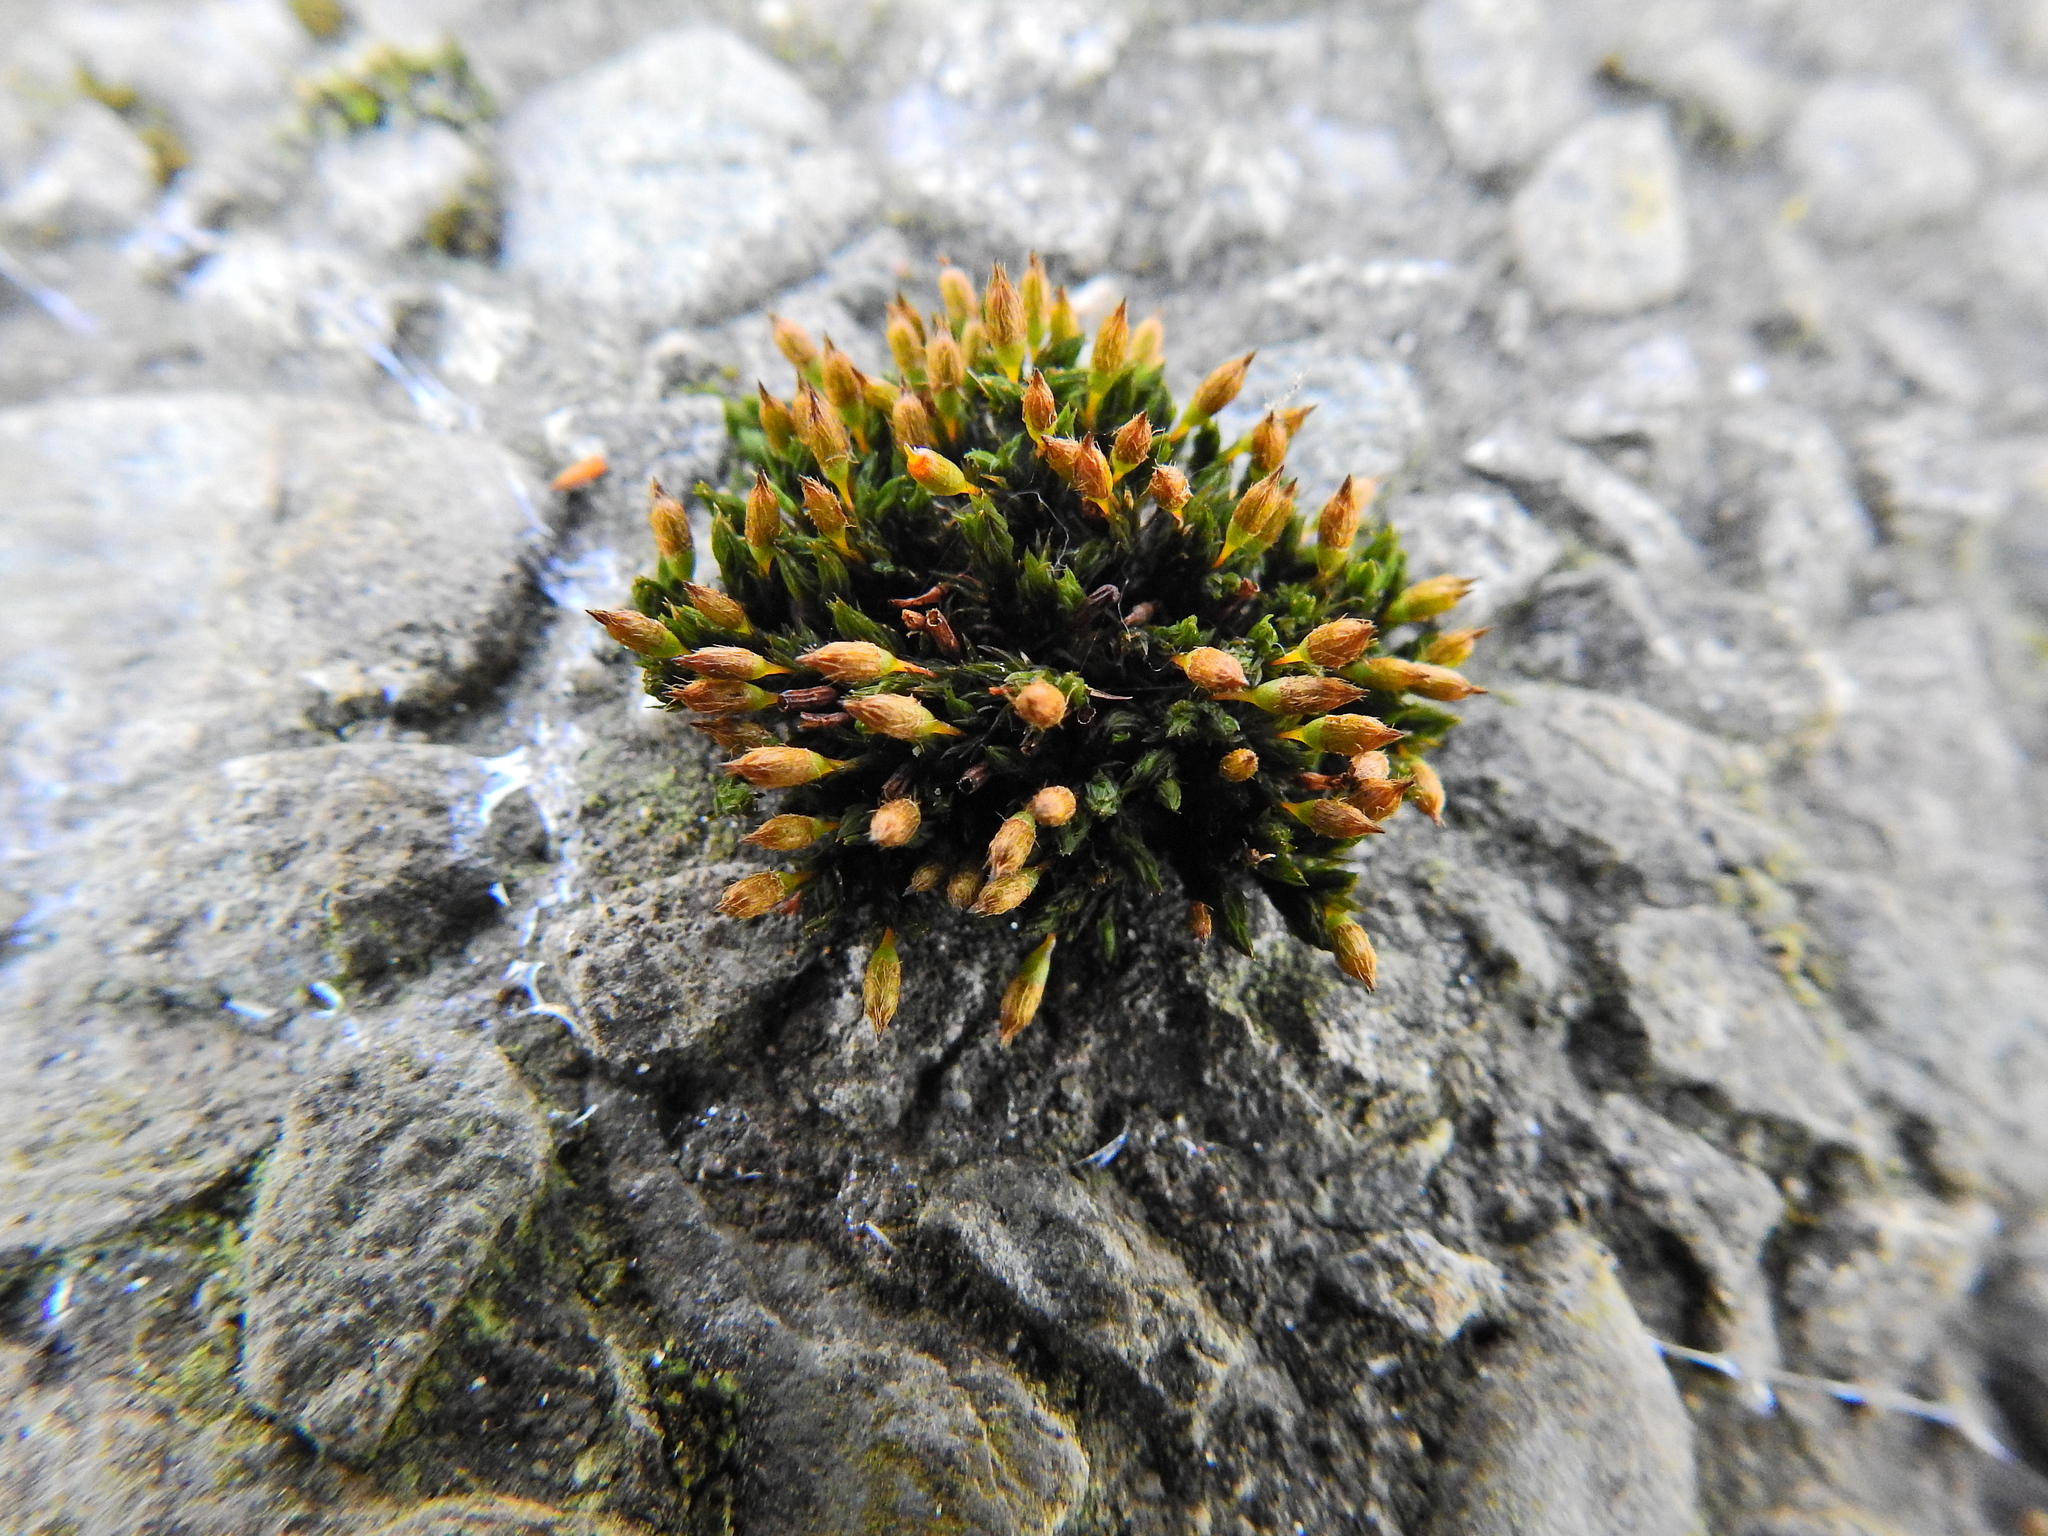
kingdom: Plantae
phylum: Bryophyta
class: Bryopsida
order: Orthotrichales
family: Orthotrichaceae
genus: Orthotrichum
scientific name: Orthotrichum anomalum
